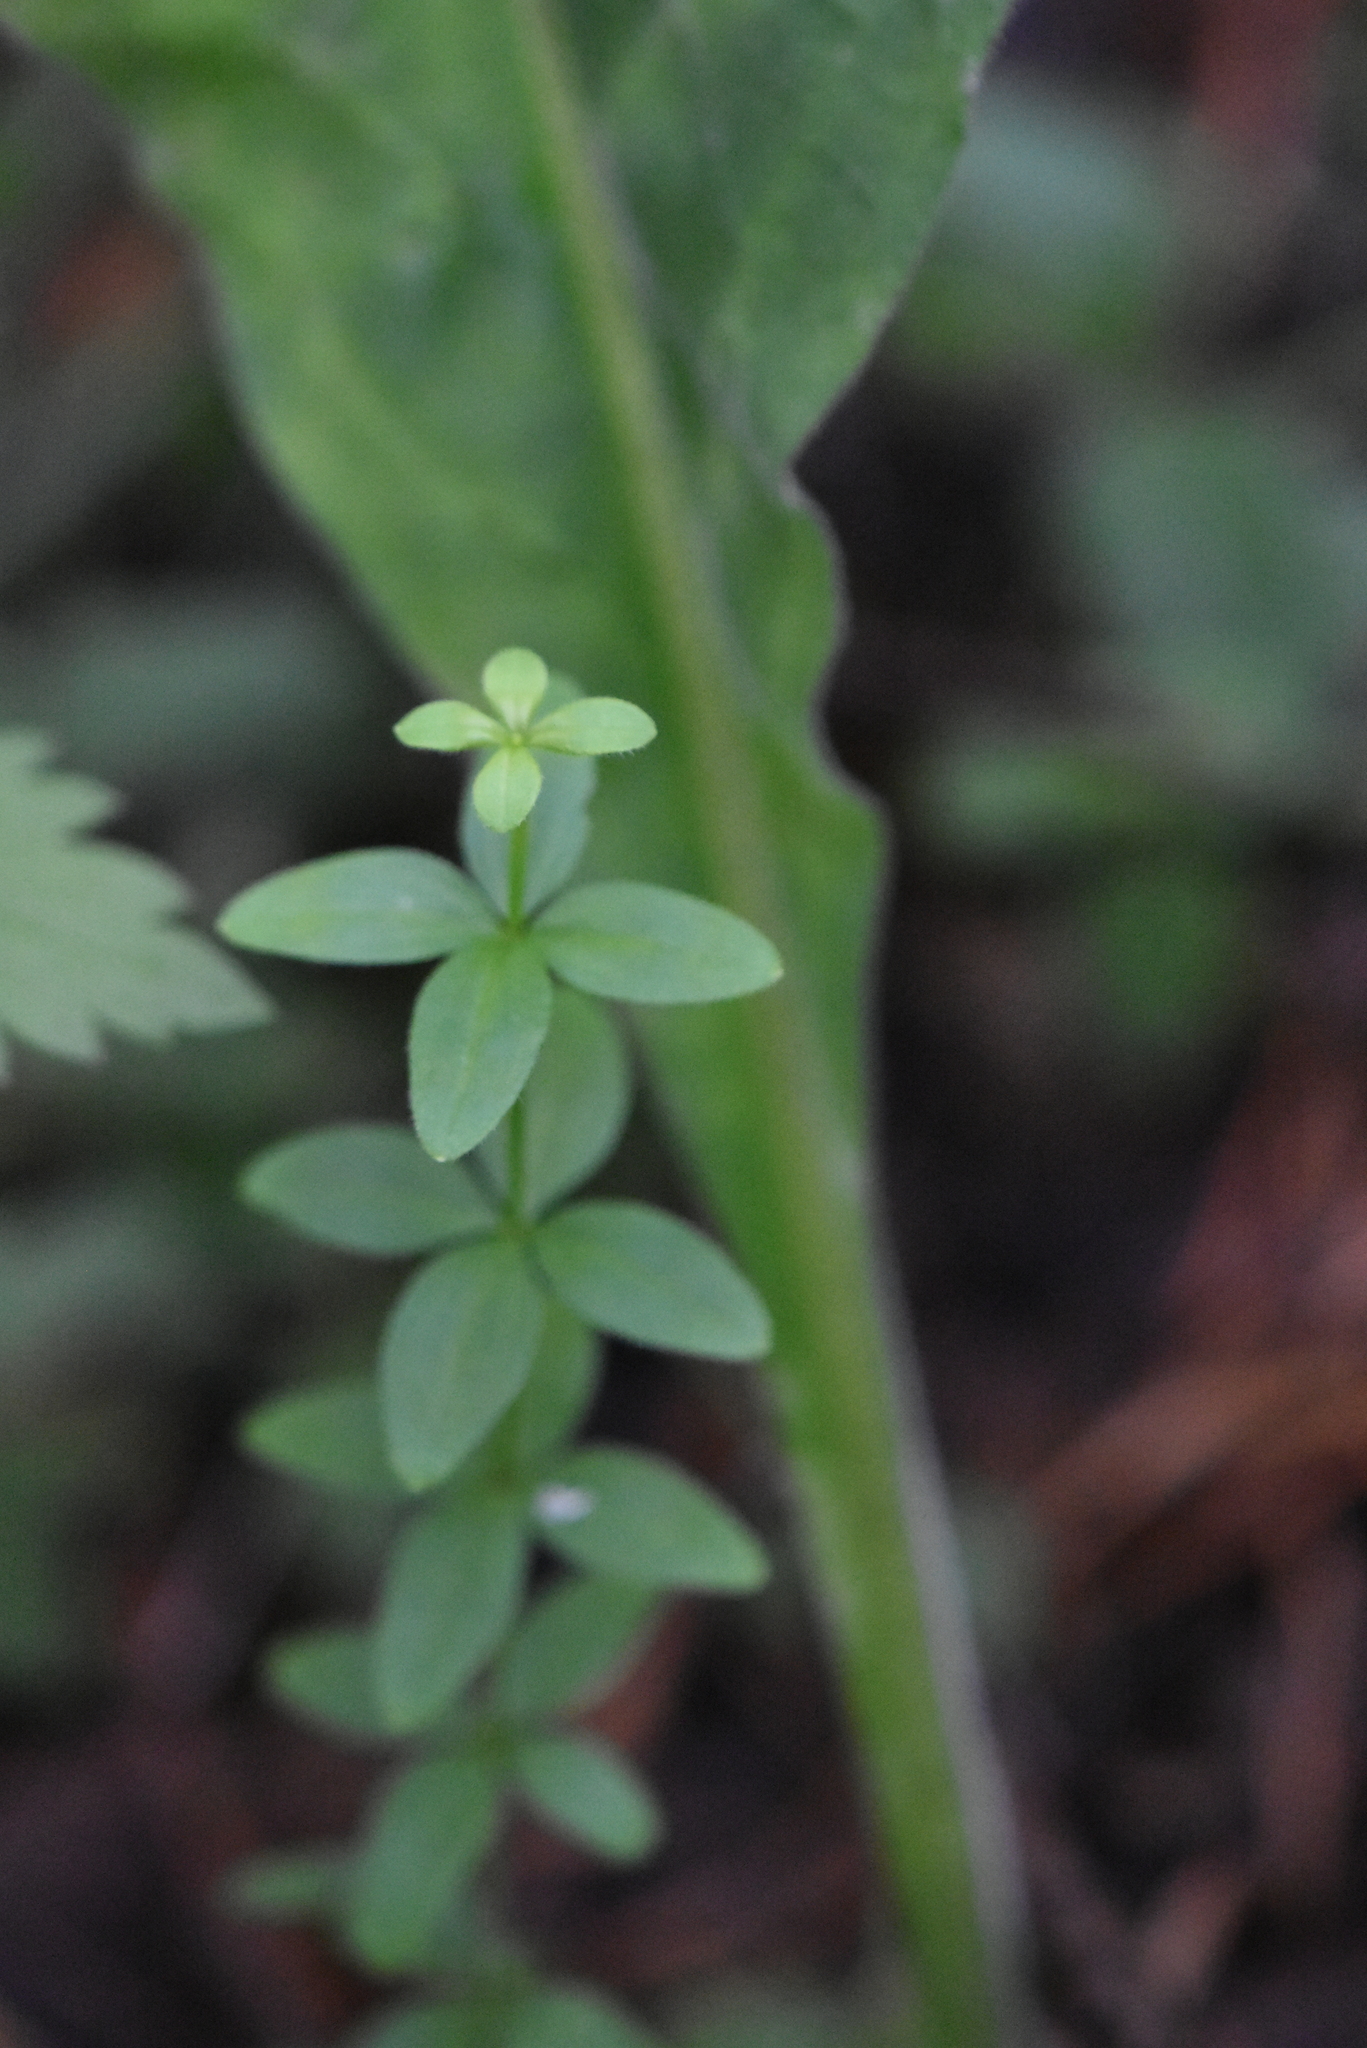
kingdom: Plantae
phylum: Tracheophyta
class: Magnoliopsida
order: Gentianales
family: Rubiaceae
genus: Cruciata
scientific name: Cruciata glabra
